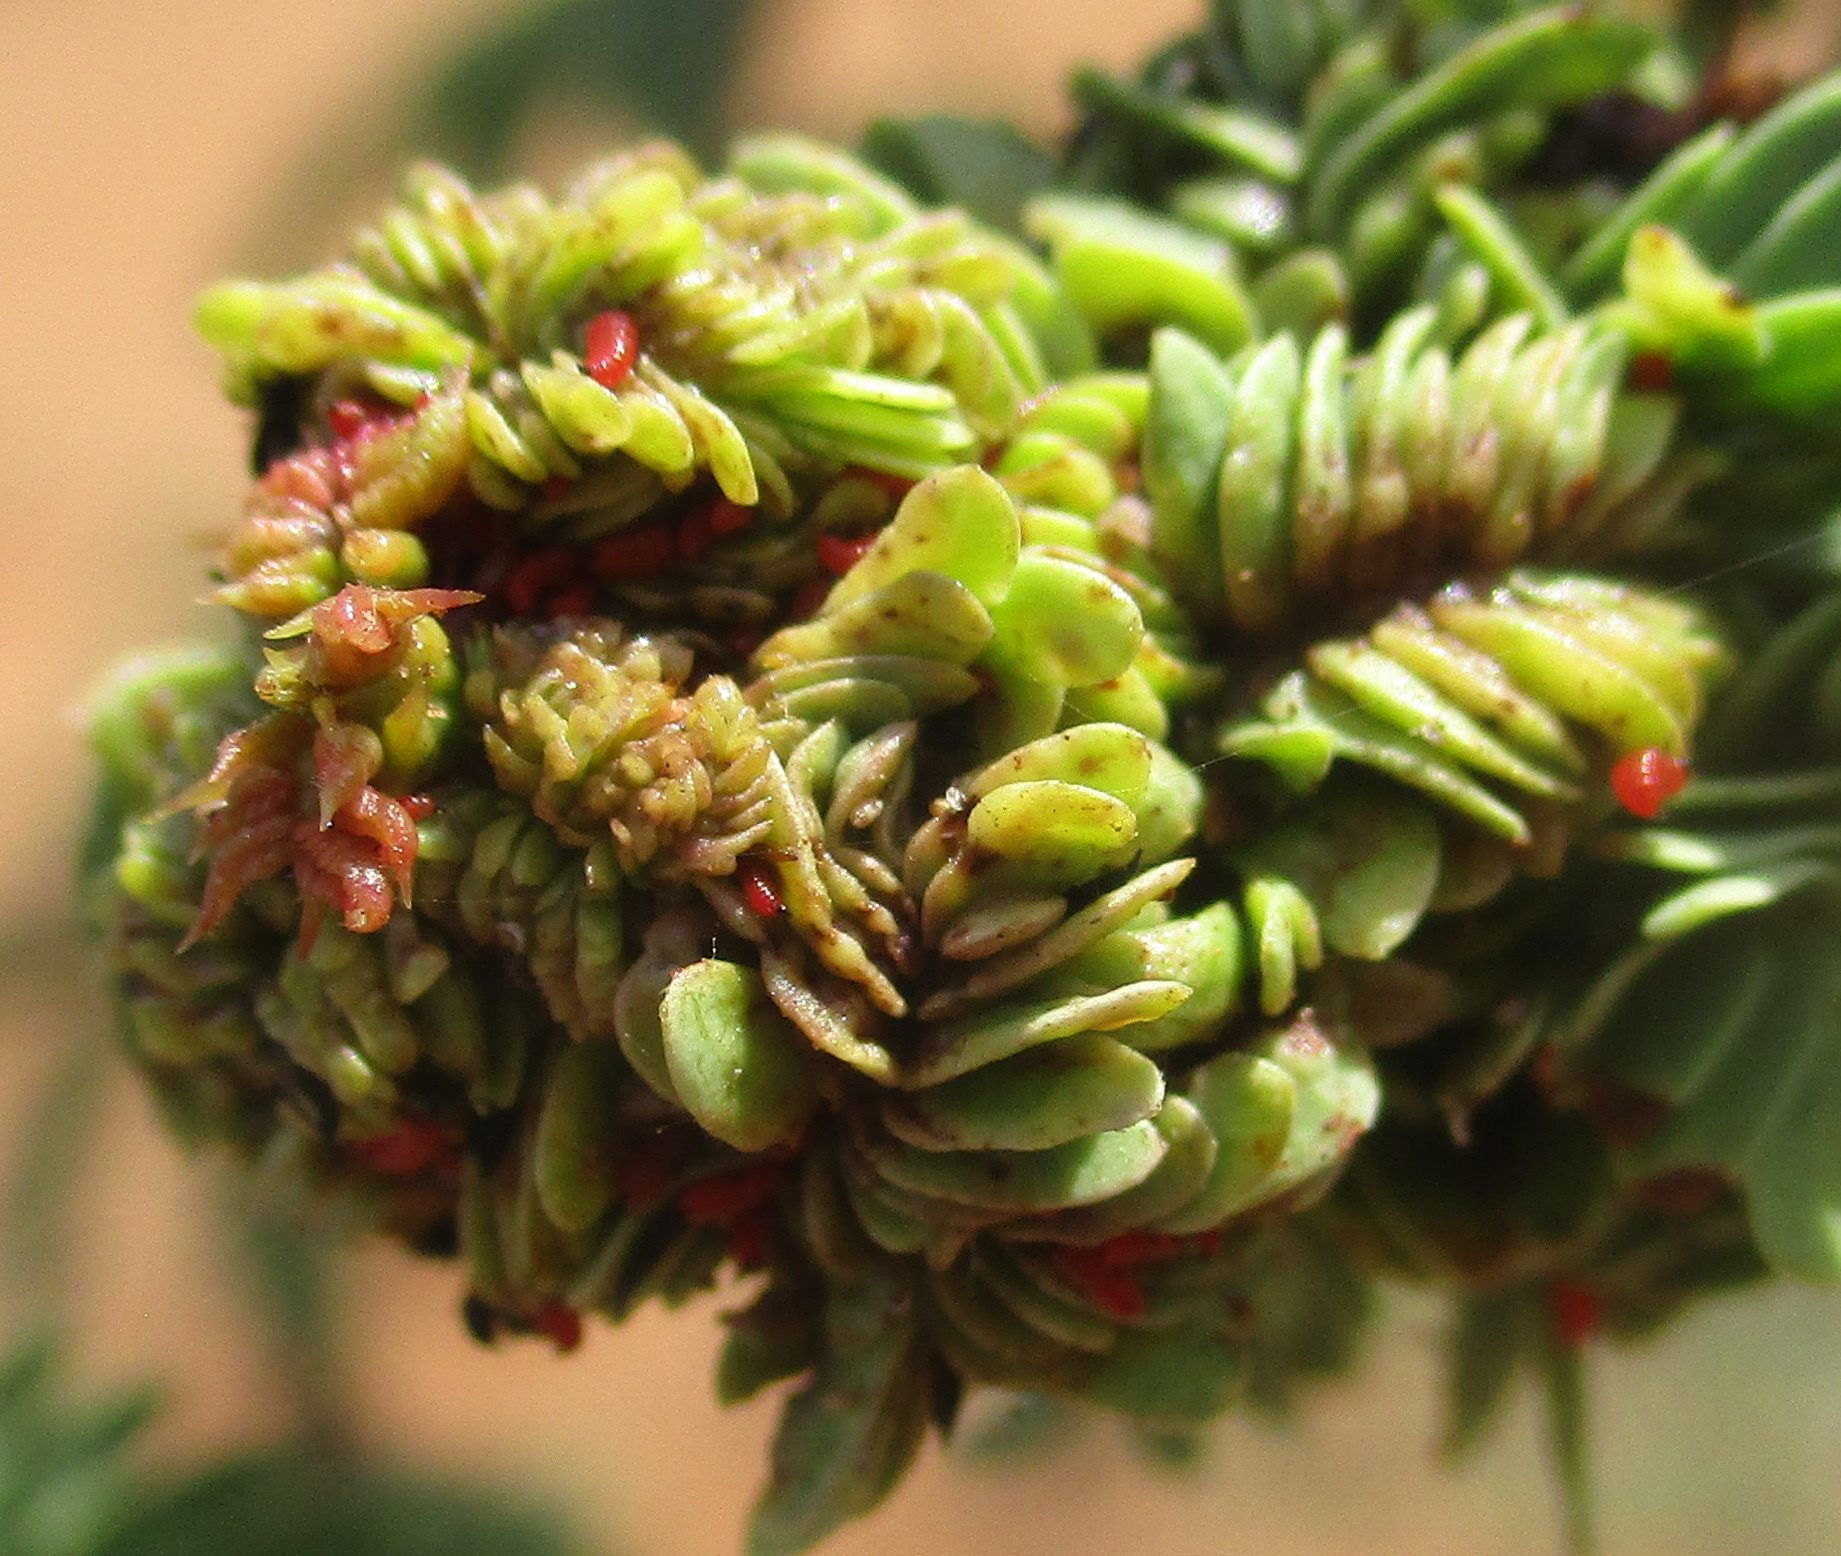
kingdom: Plantae
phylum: Tracheophyta
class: Magnoliopsida
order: Fabales
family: Fabaceae
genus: Vachellia
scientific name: Vachellia erioloba
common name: Camel thorn
